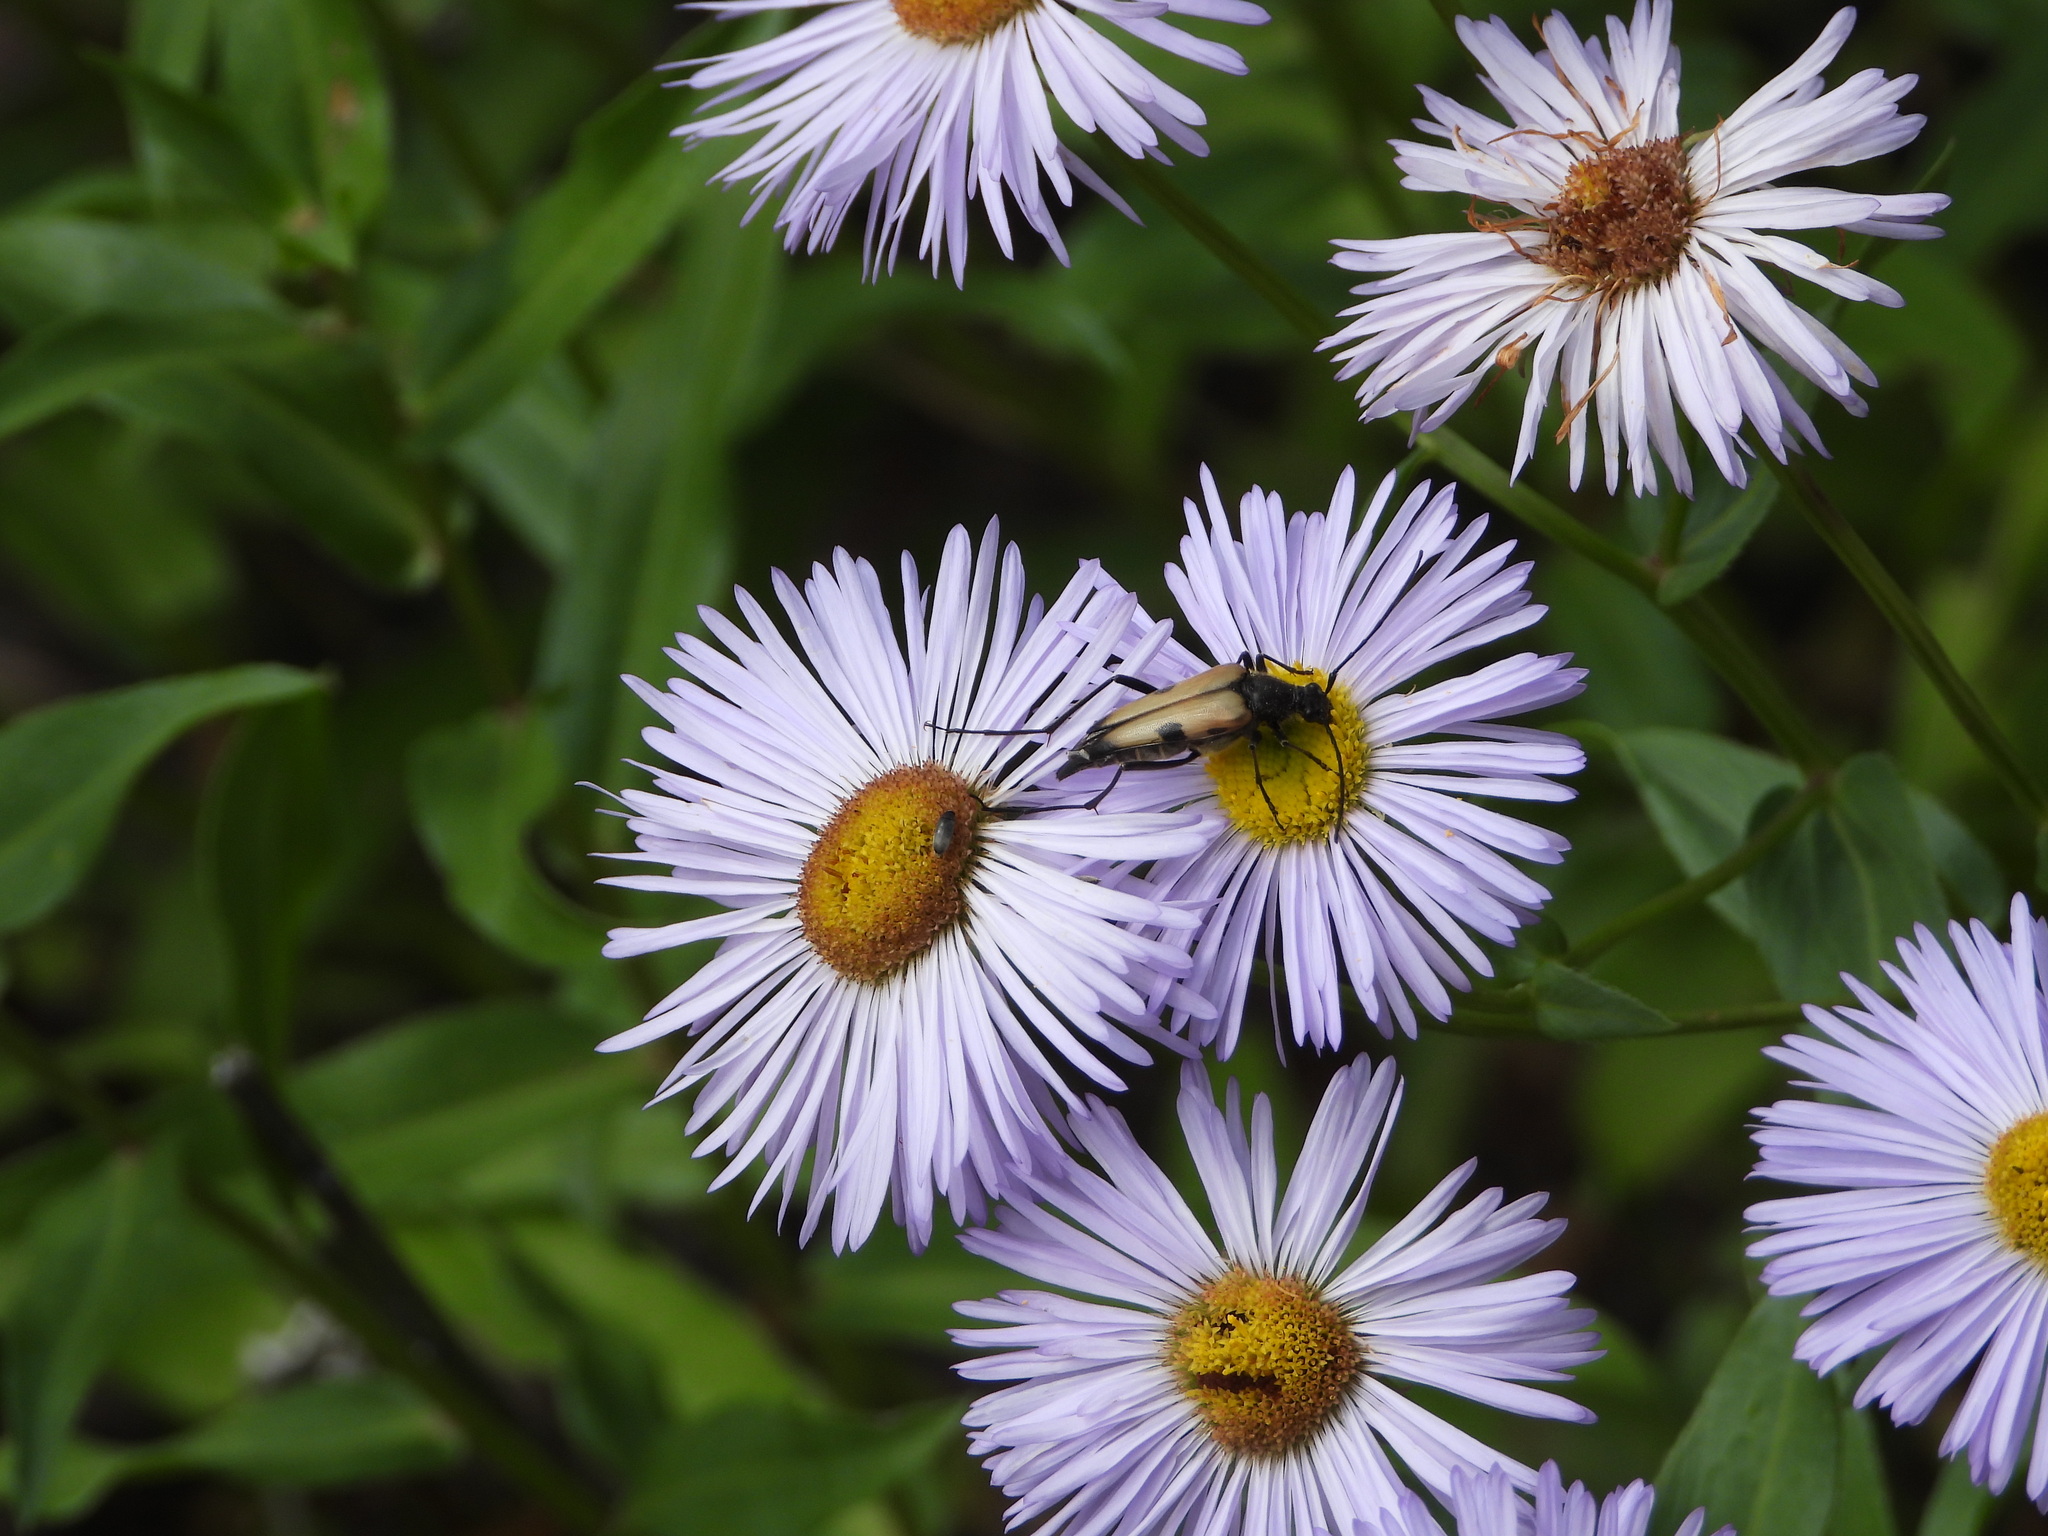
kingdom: Animalia
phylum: Arthropoda
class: Insecta
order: Coleoptera
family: Cerambycidae
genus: Etorofus
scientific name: Etorofus
